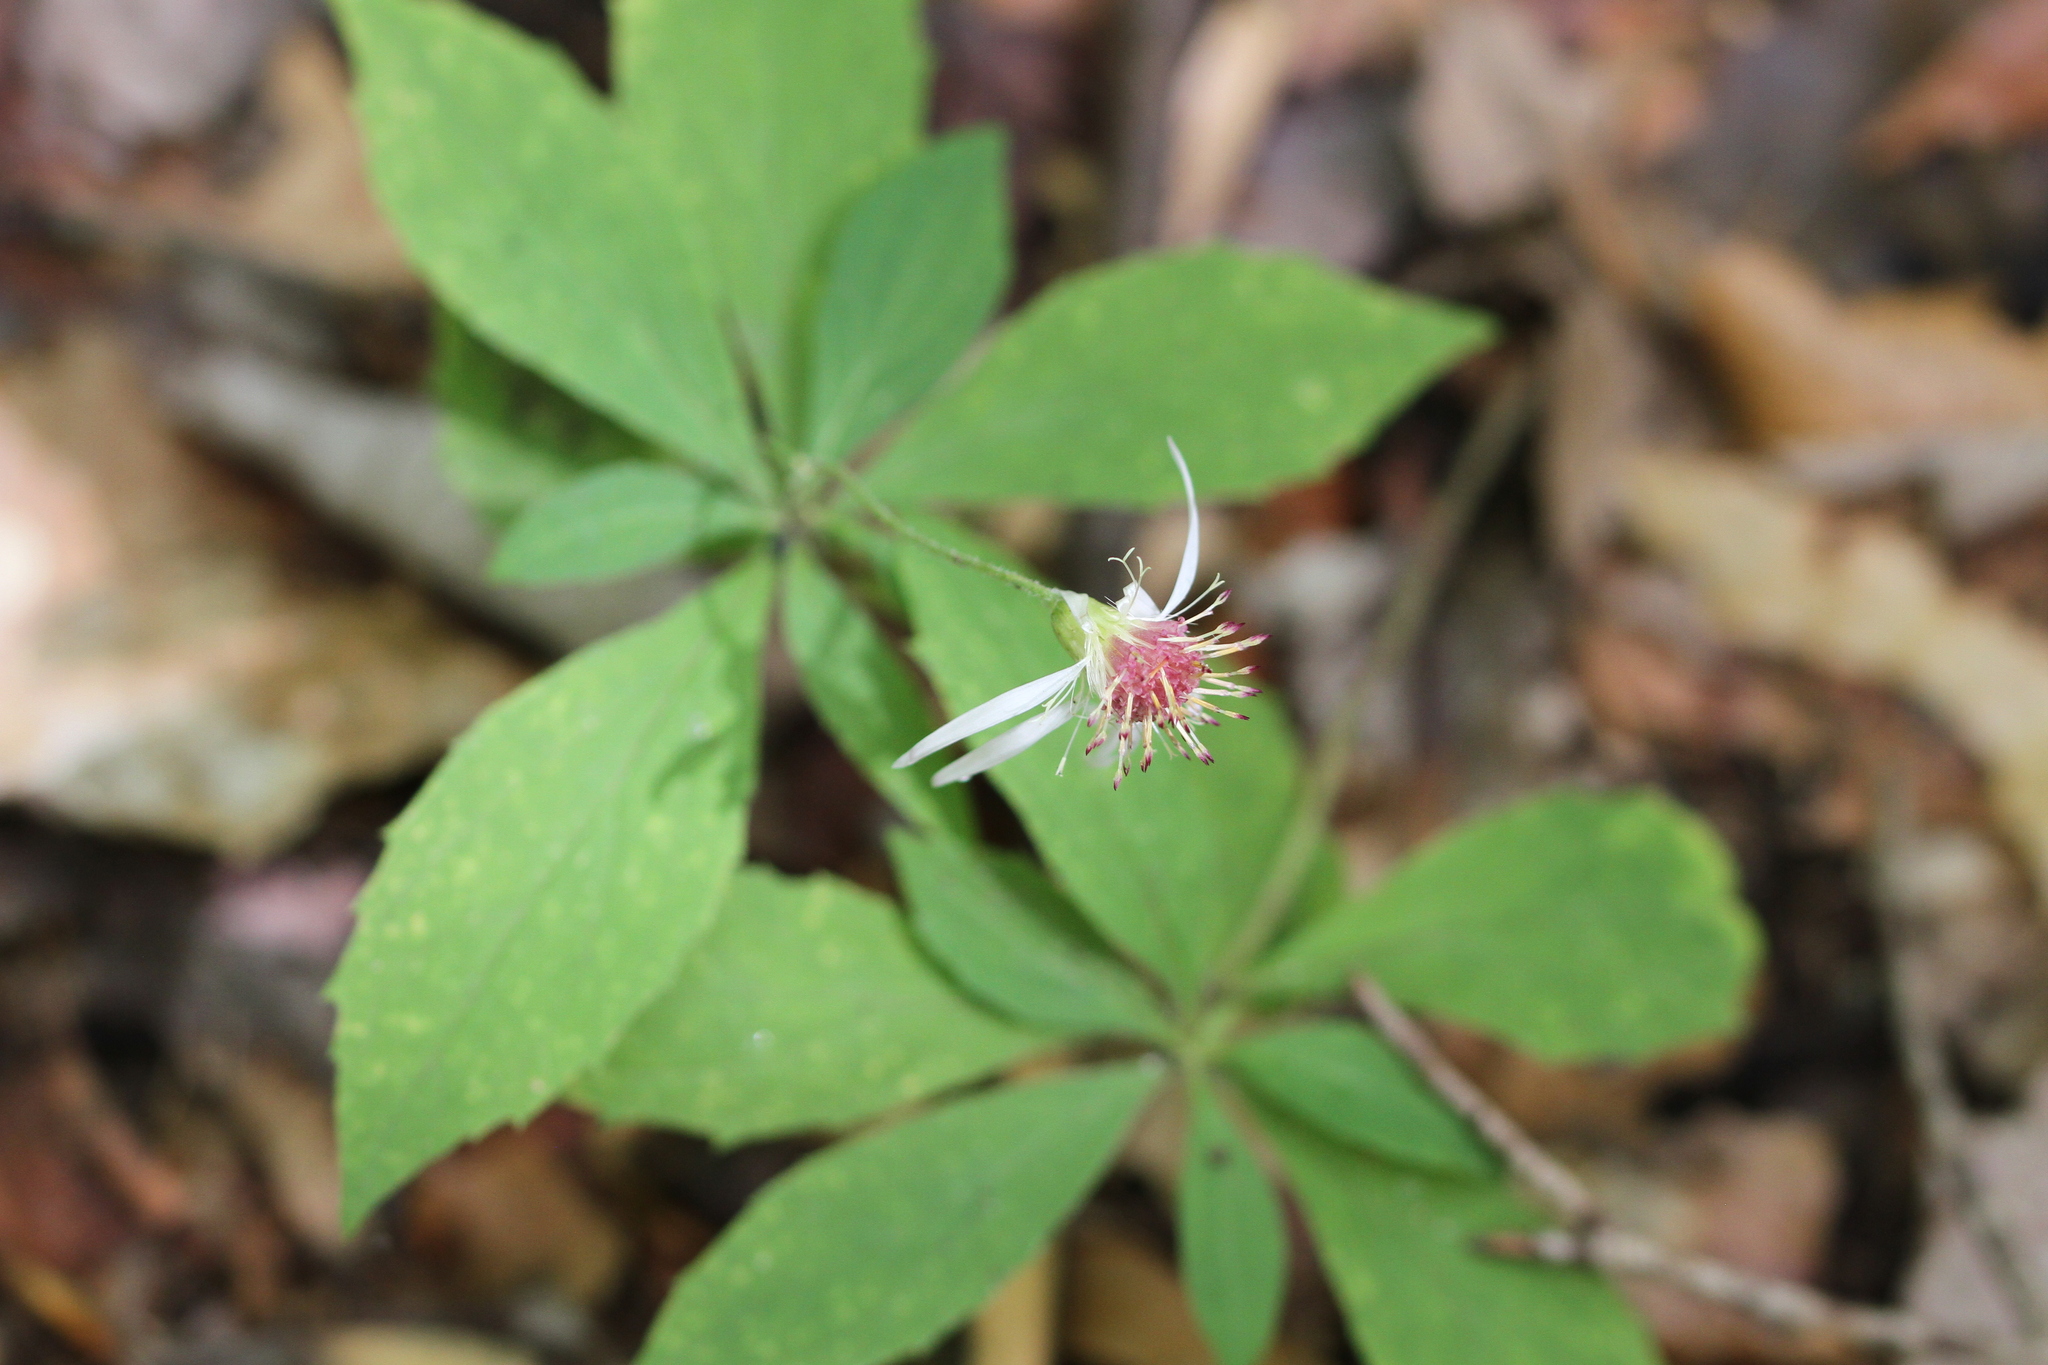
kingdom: Plantae
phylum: Tracheophyta
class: Magnoliopsida
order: Asterales
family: Asteraceae
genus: Oclemena
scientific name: Oclemena acuminata
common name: Mountain aster
